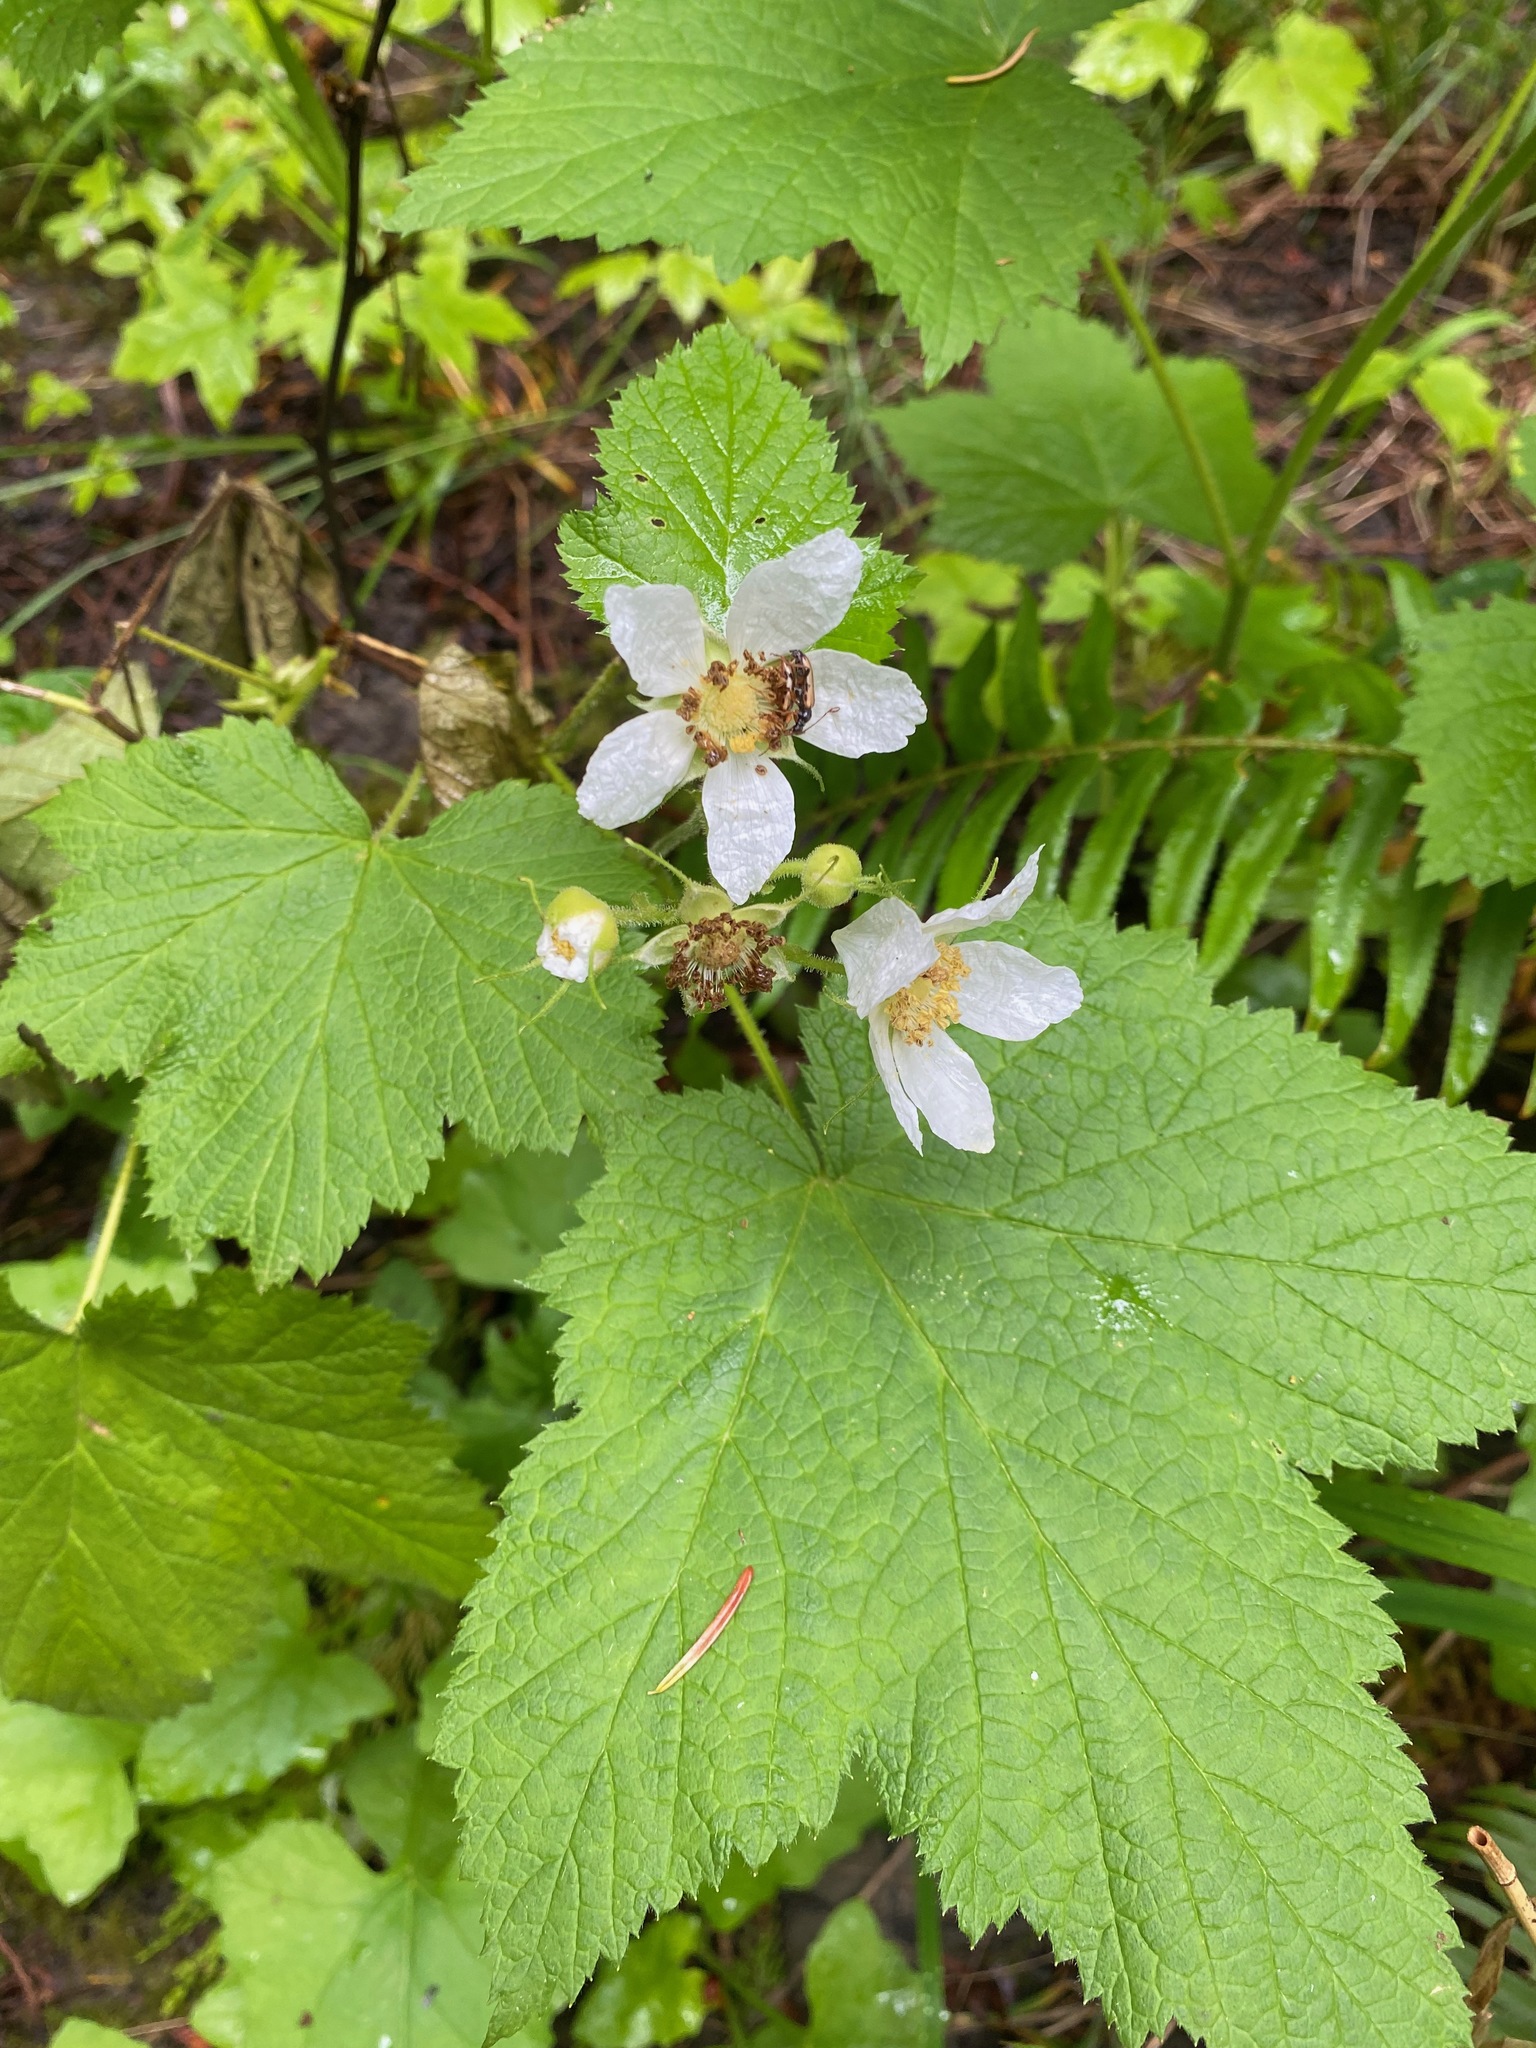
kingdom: Plantae
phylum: Tracheophyta
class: Magnoliopsida
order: Rosales
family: Rosaceae
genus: Rubus
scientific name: Rubus parviflorus
